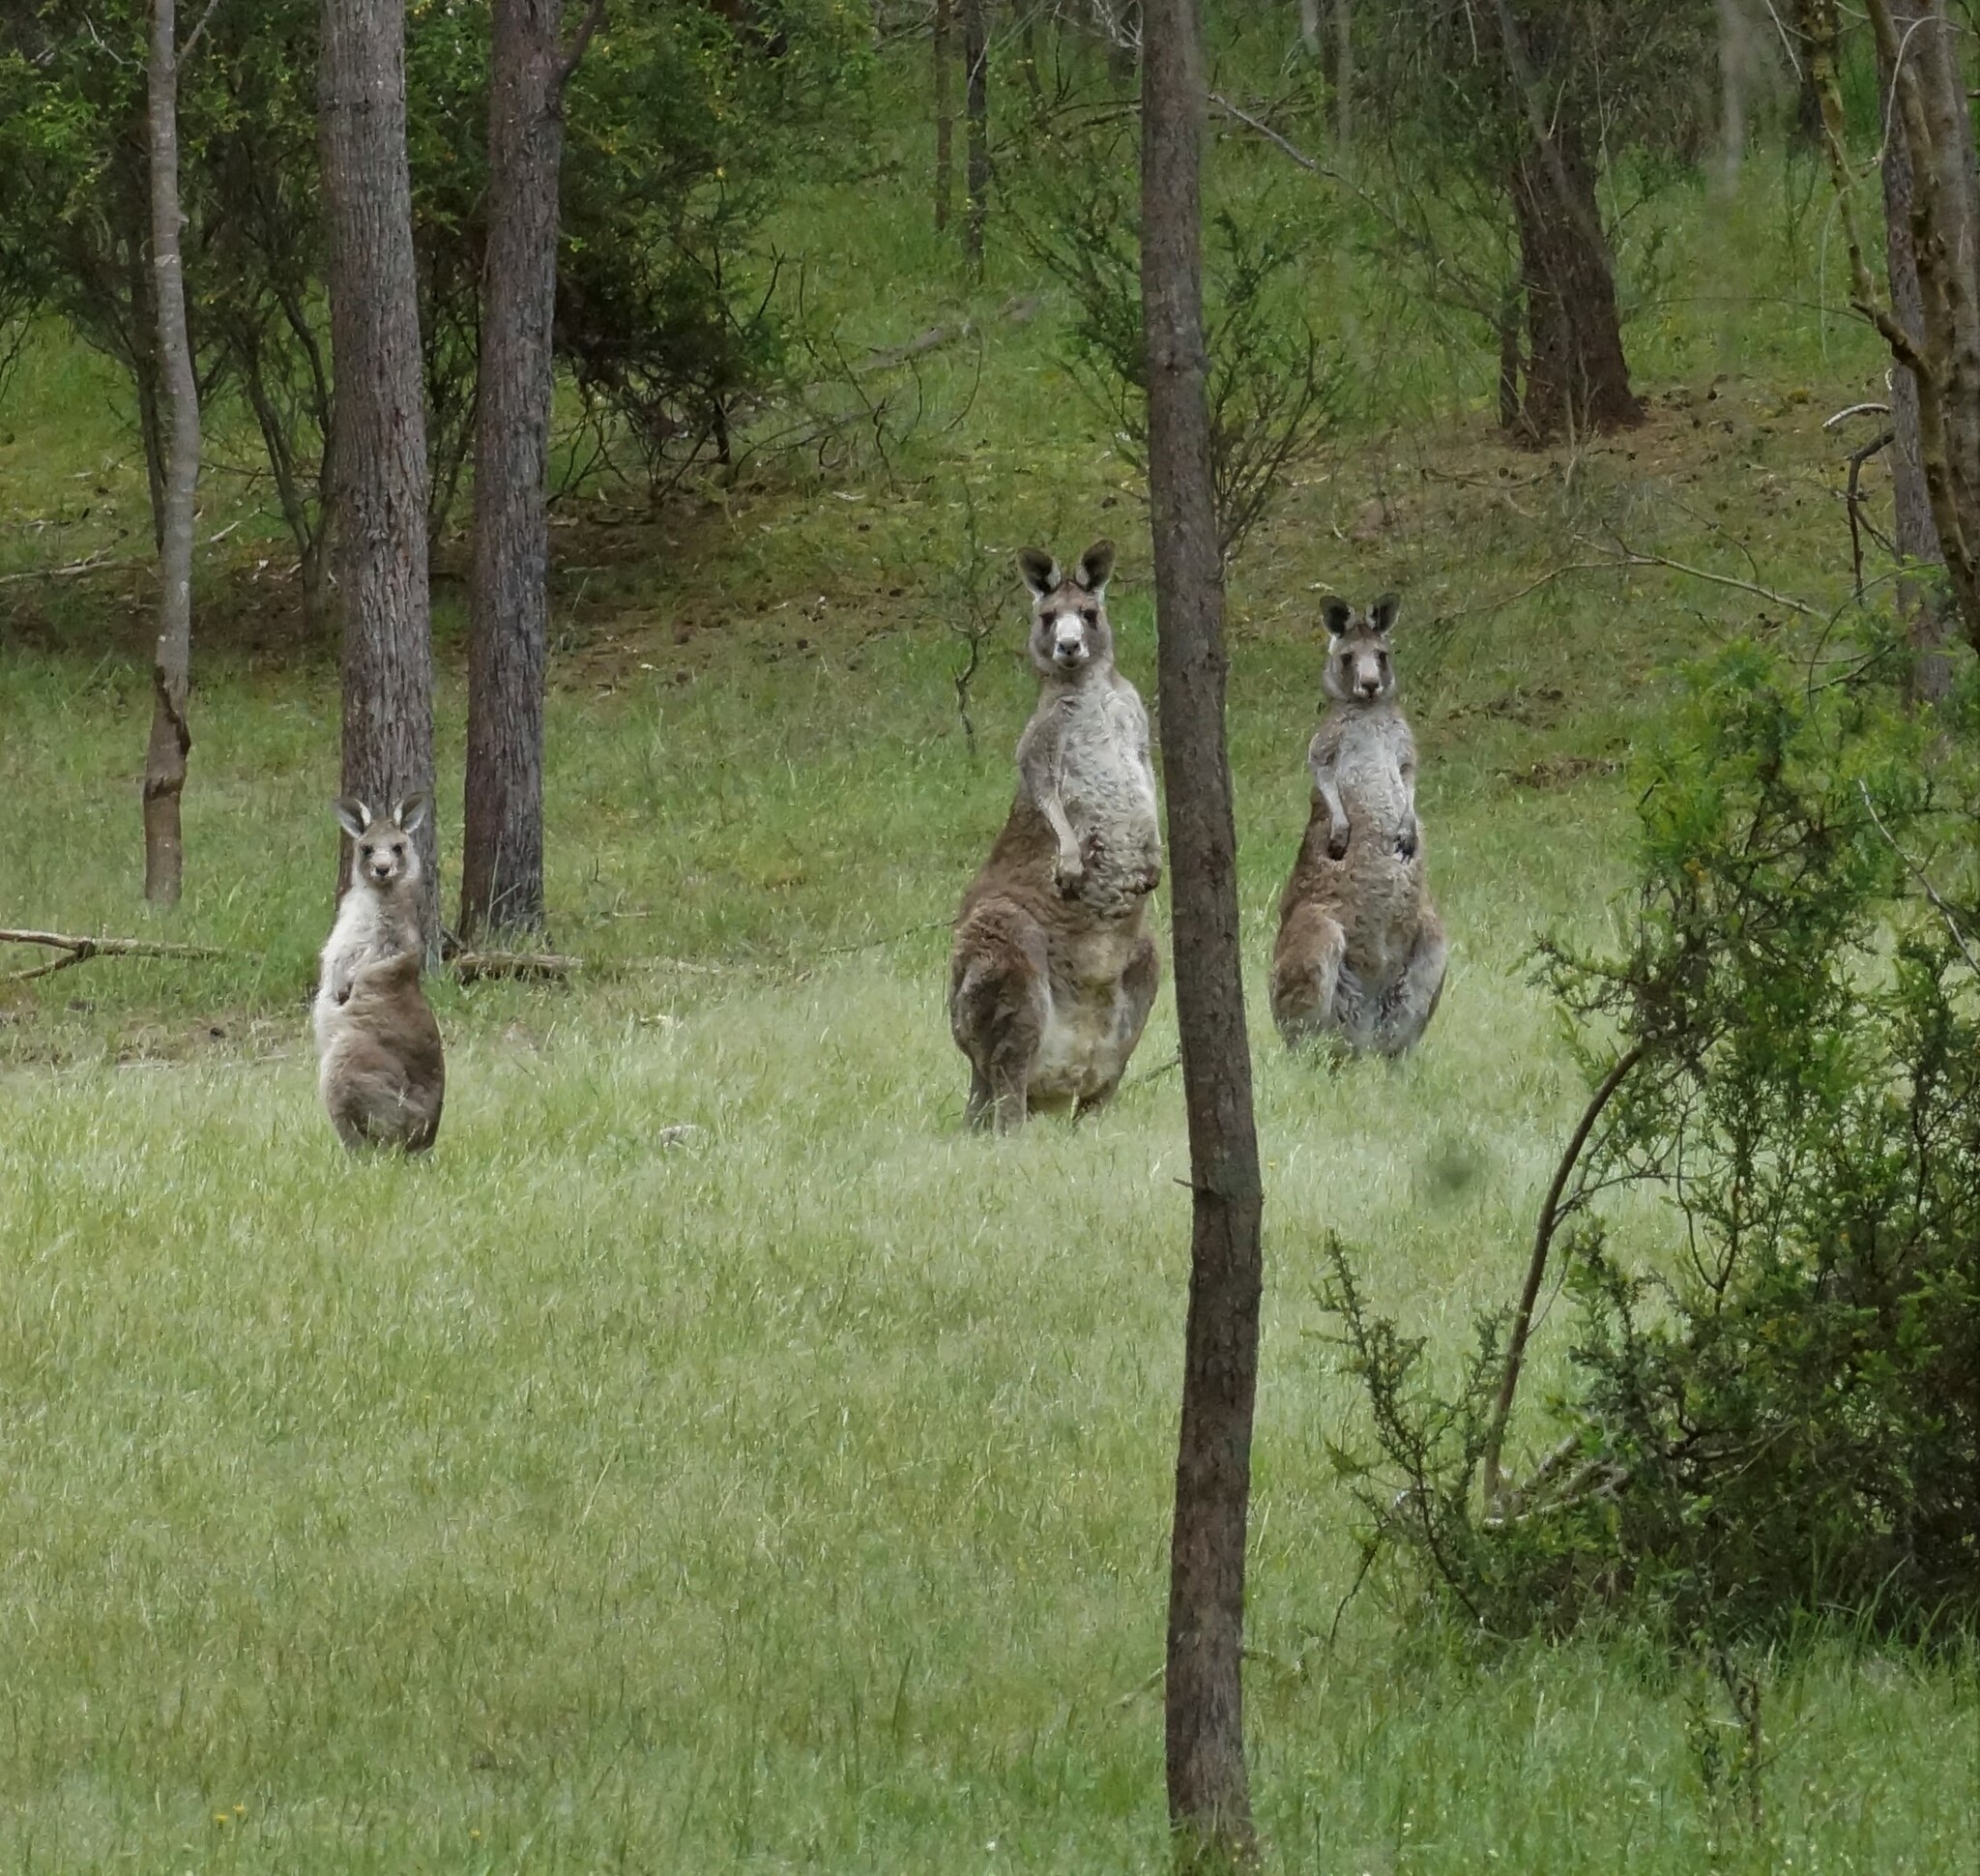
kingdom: Animalia
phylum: Chordata
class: Mammalia
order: Diprotodontia
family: Macropodidae
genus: Macropus
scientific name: Macropus giganteus
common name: Eastern grey kangaroo
